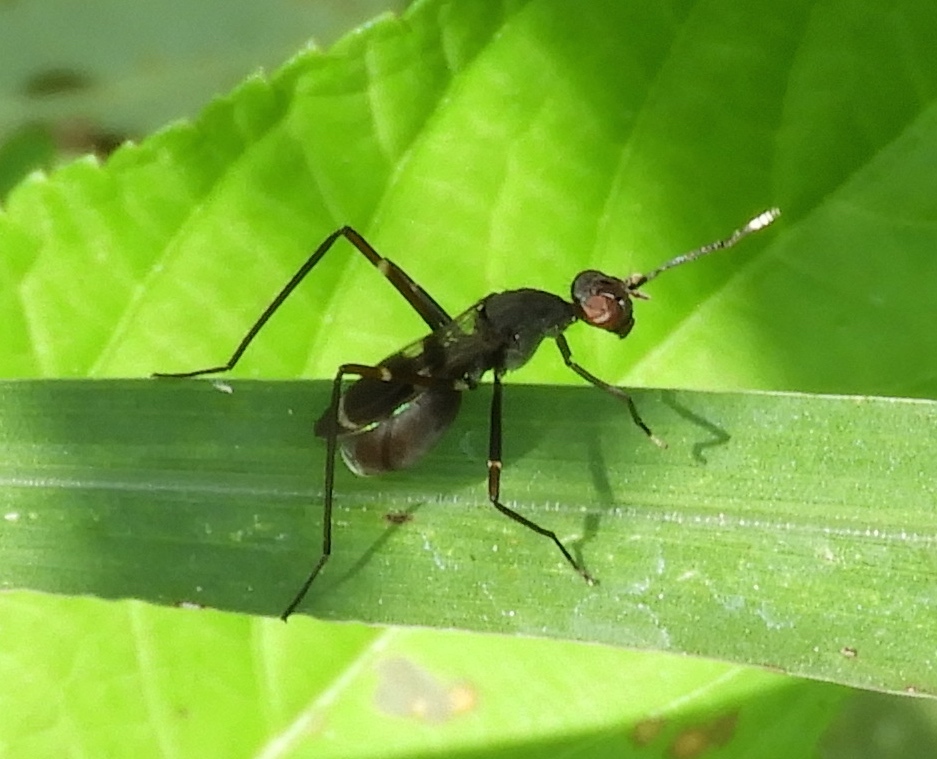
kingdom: Animalia
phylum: Arthropoda
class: Insecta
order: Diptera
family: Micropezidae
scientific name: Micropezidae
